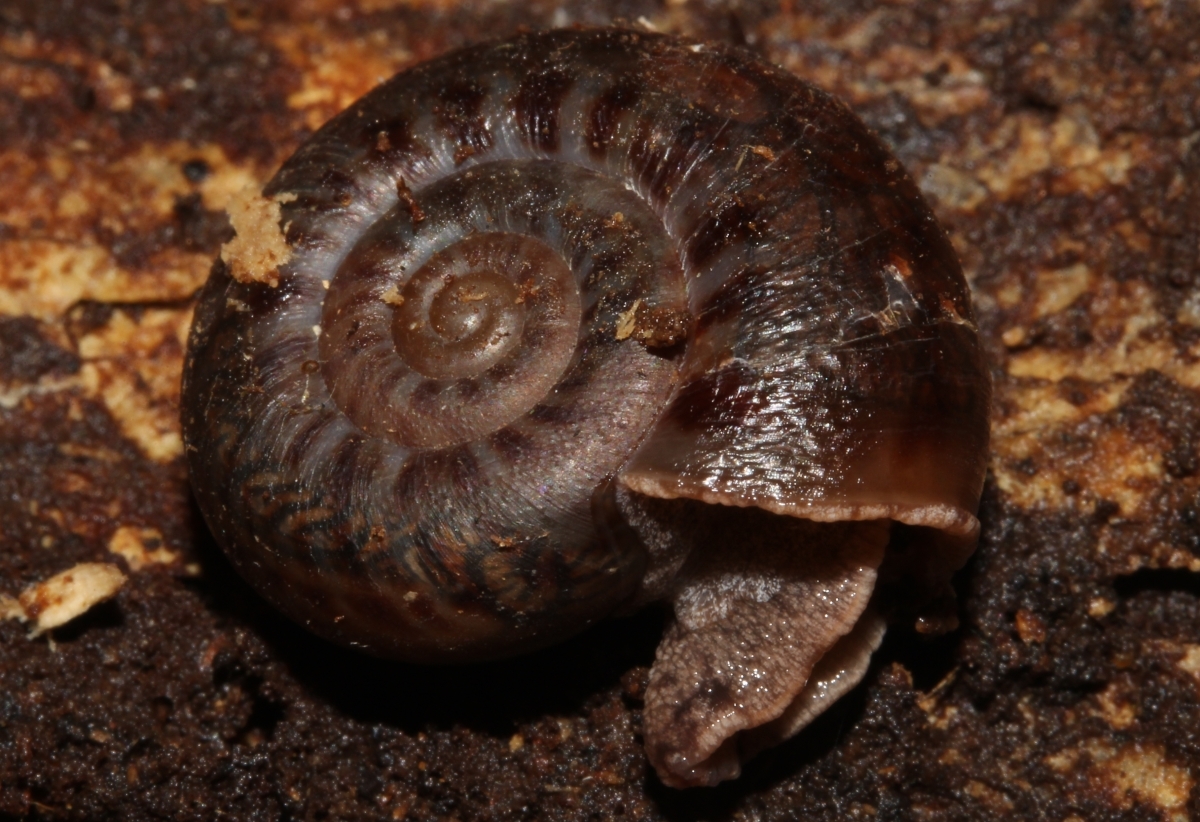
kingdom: Animalia
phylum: Mollusca
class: Gastropoda
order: Stylommatophora
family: Solaropsidae
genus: Solaropsis
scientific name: Solaropsis juruana
